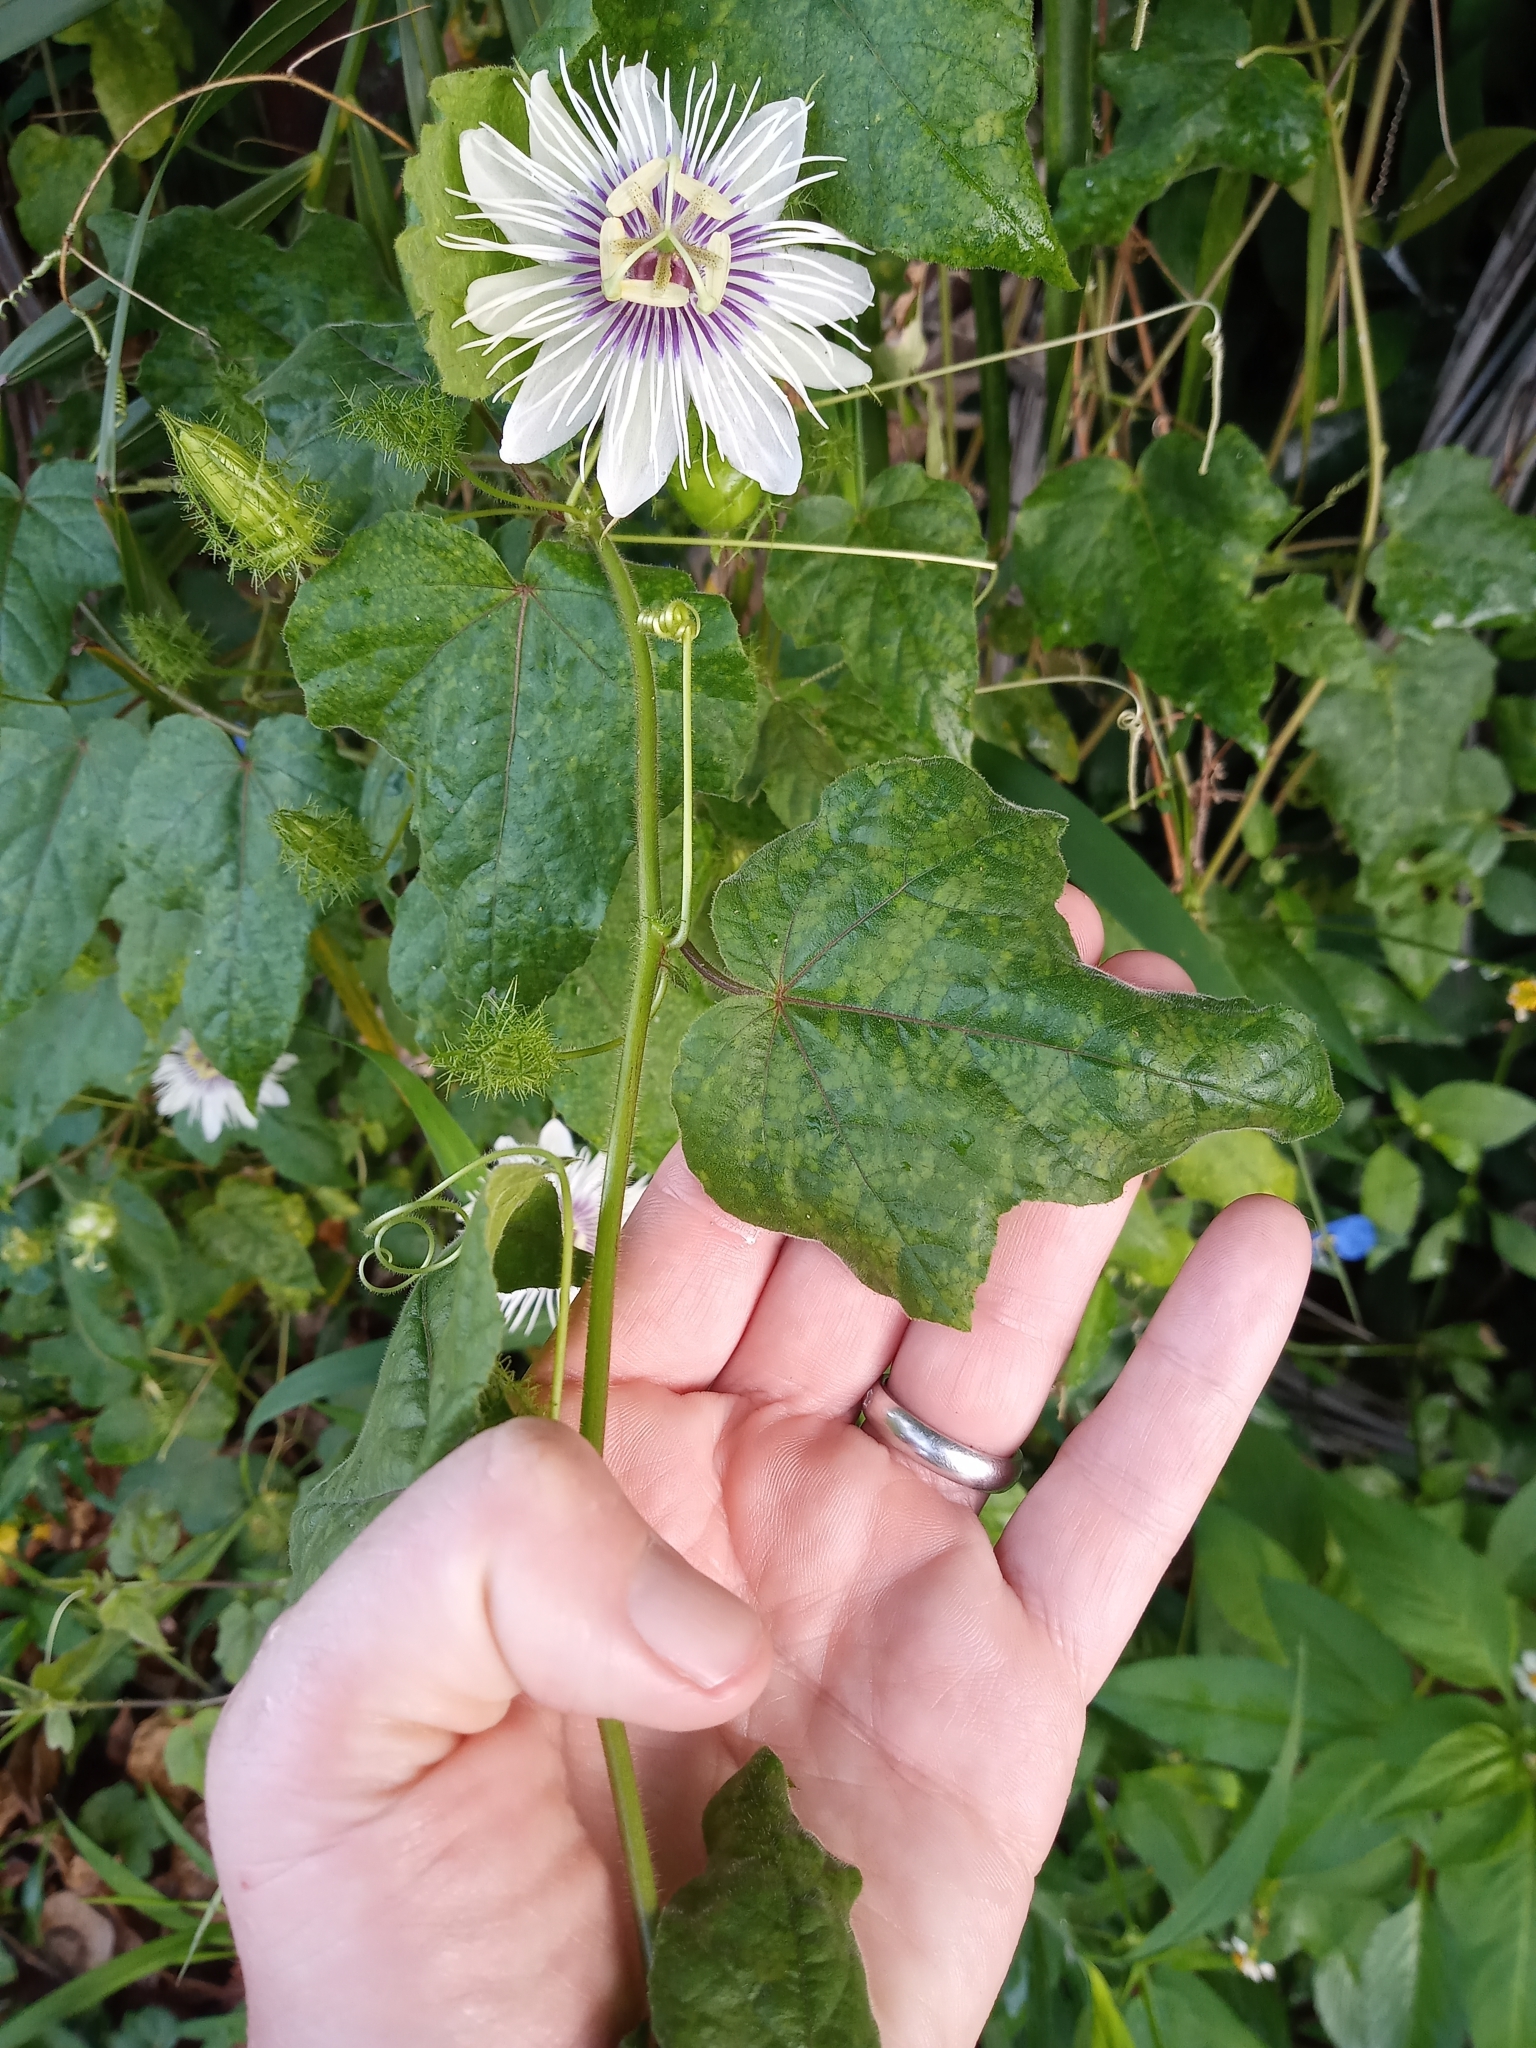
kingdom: Plantae
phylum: Tracheophyta
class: Magnoliopsida
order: Malpighiales
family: Passifloraceae
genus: Passiflora
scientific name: Passiflora foetida
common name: Fetid passionflower
